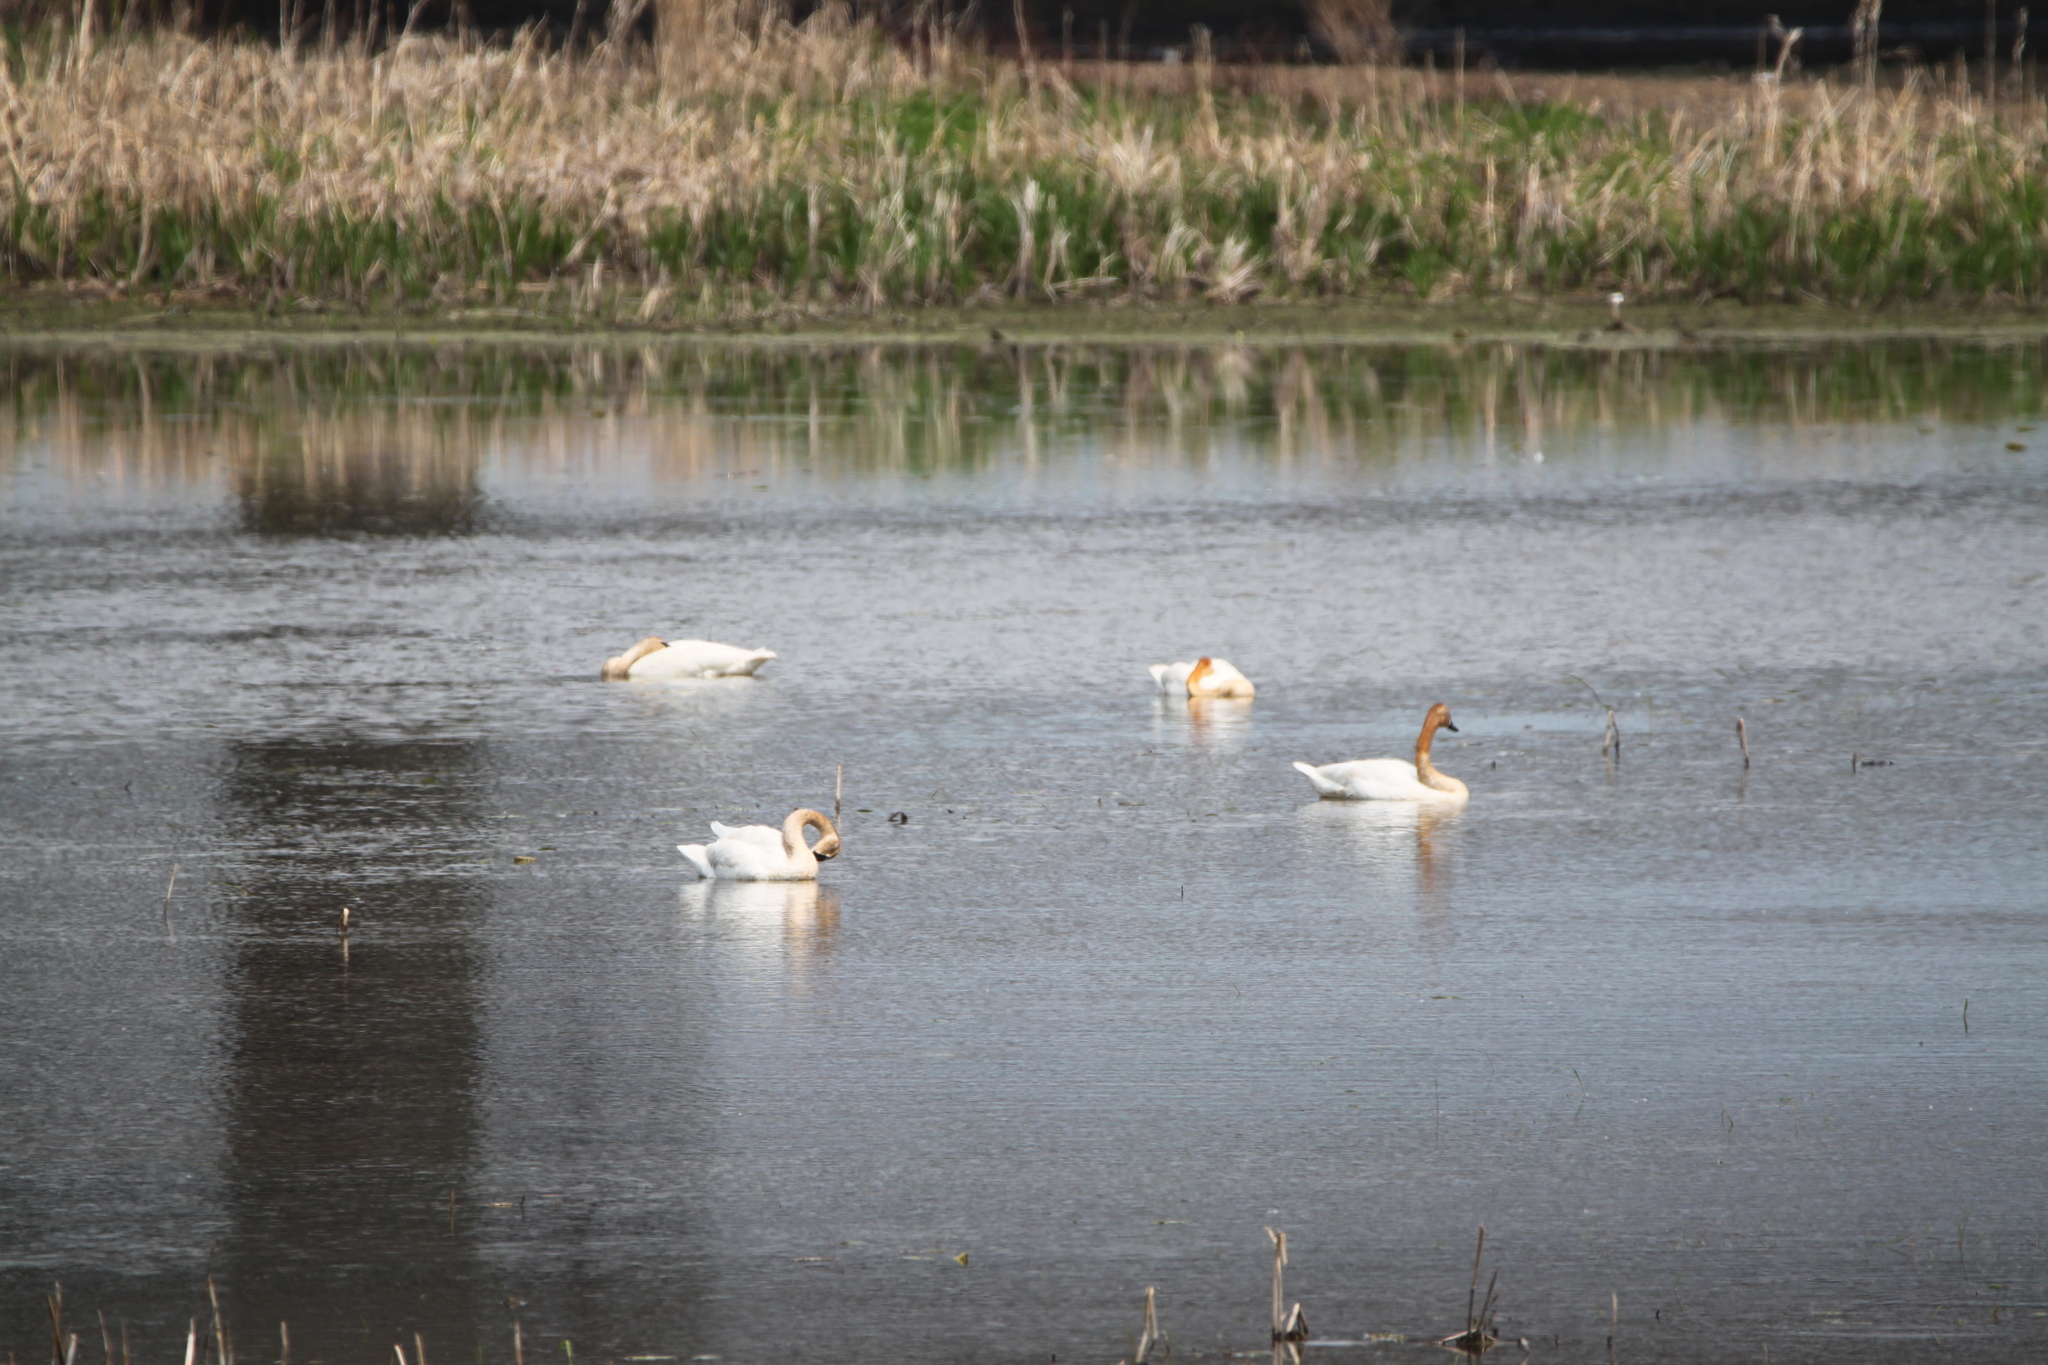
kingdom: Animalia
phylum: Chordata
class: Aves
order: Anseriformes
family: Anatidae
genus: Cygnus
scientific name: Cygnus buccinator
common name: Trumpeter swan
